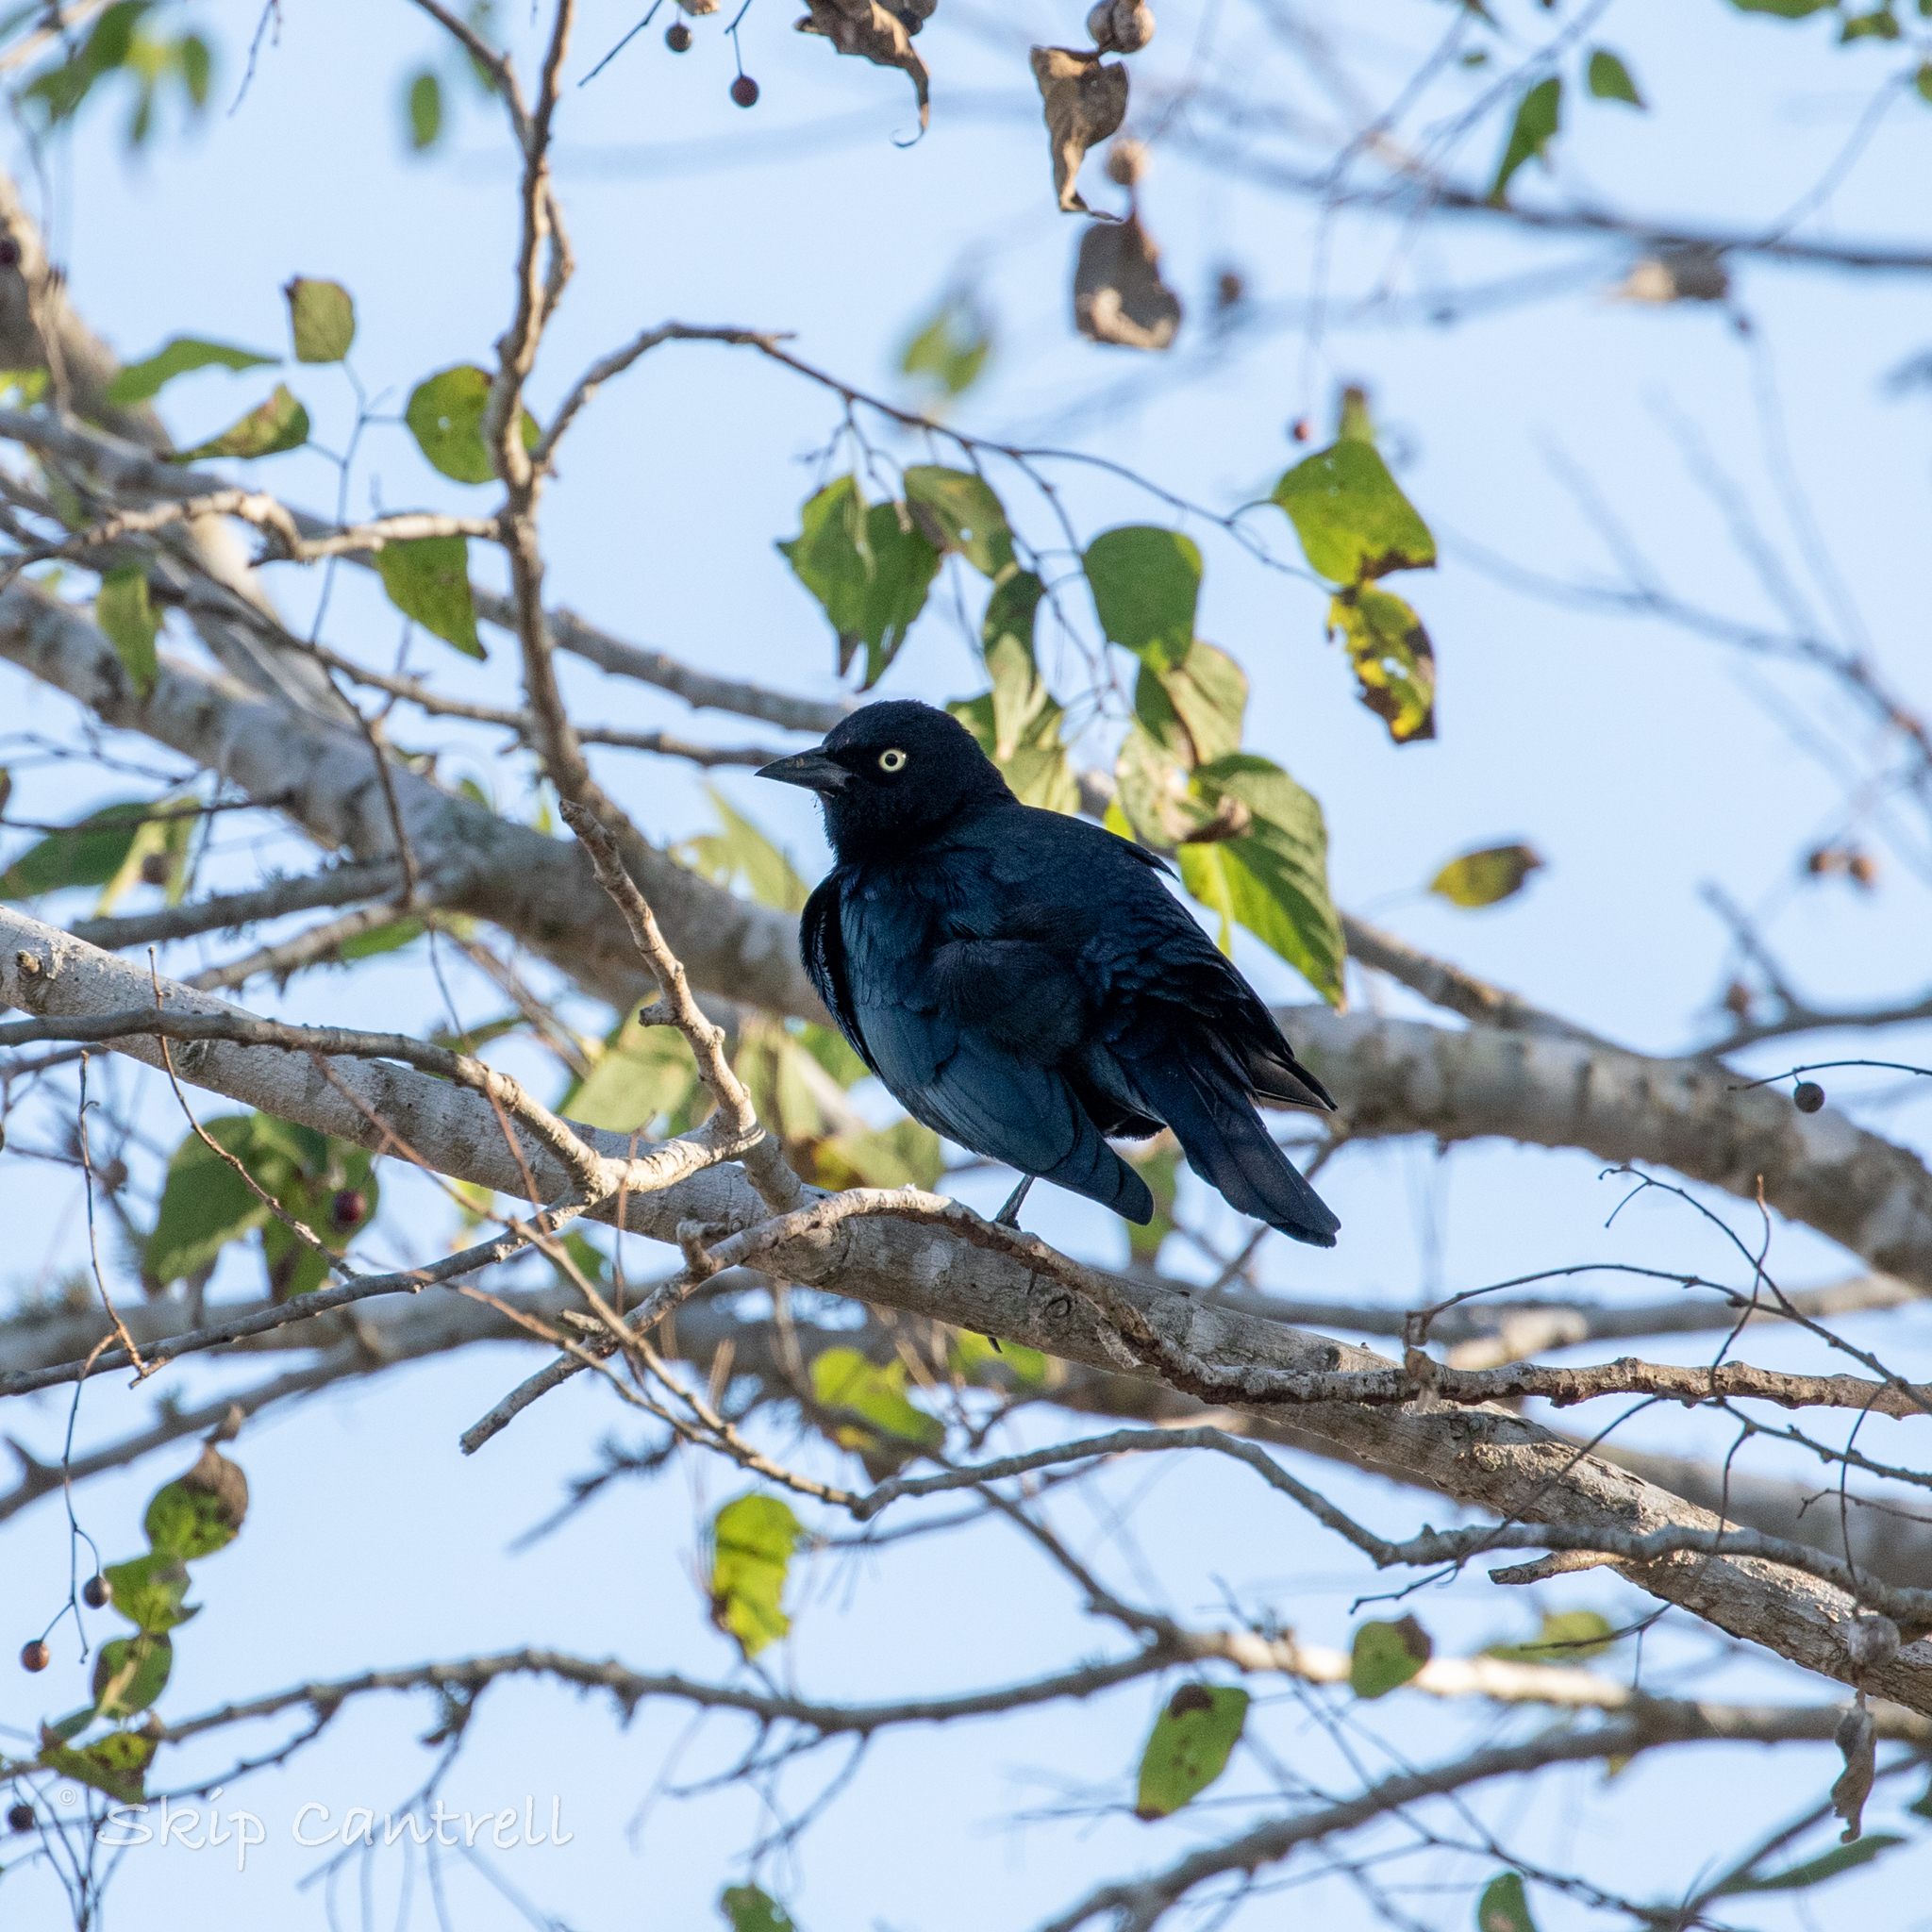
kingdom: Animalia
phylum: Chordata
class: Aves
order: Passeriformes
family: Icteridae
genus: Euphagus
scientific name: Euphagus cyanocephalus
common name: Brewer's blackbird
